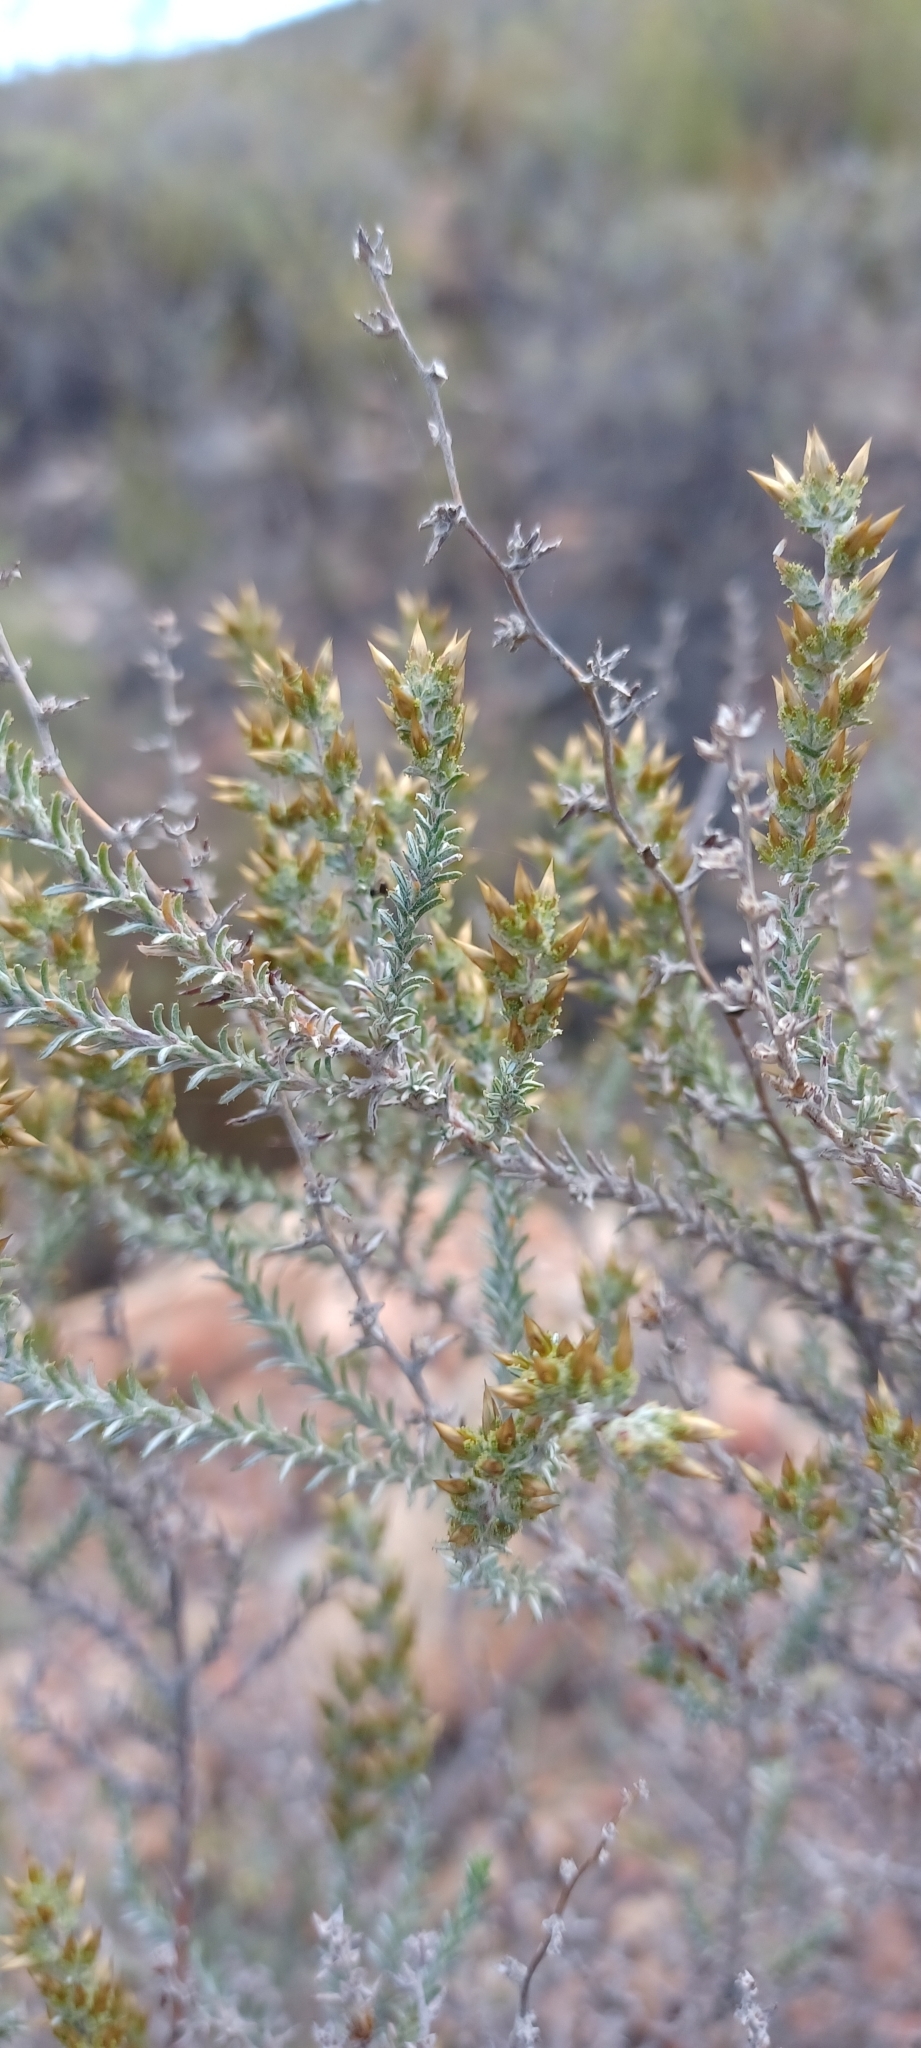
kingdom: Plantae
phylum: Tracheophyta
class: Magnoliopsida
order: Asterales
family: Asteraceae
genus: Myrovernix
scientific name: Myrovernix gnaphaloides
